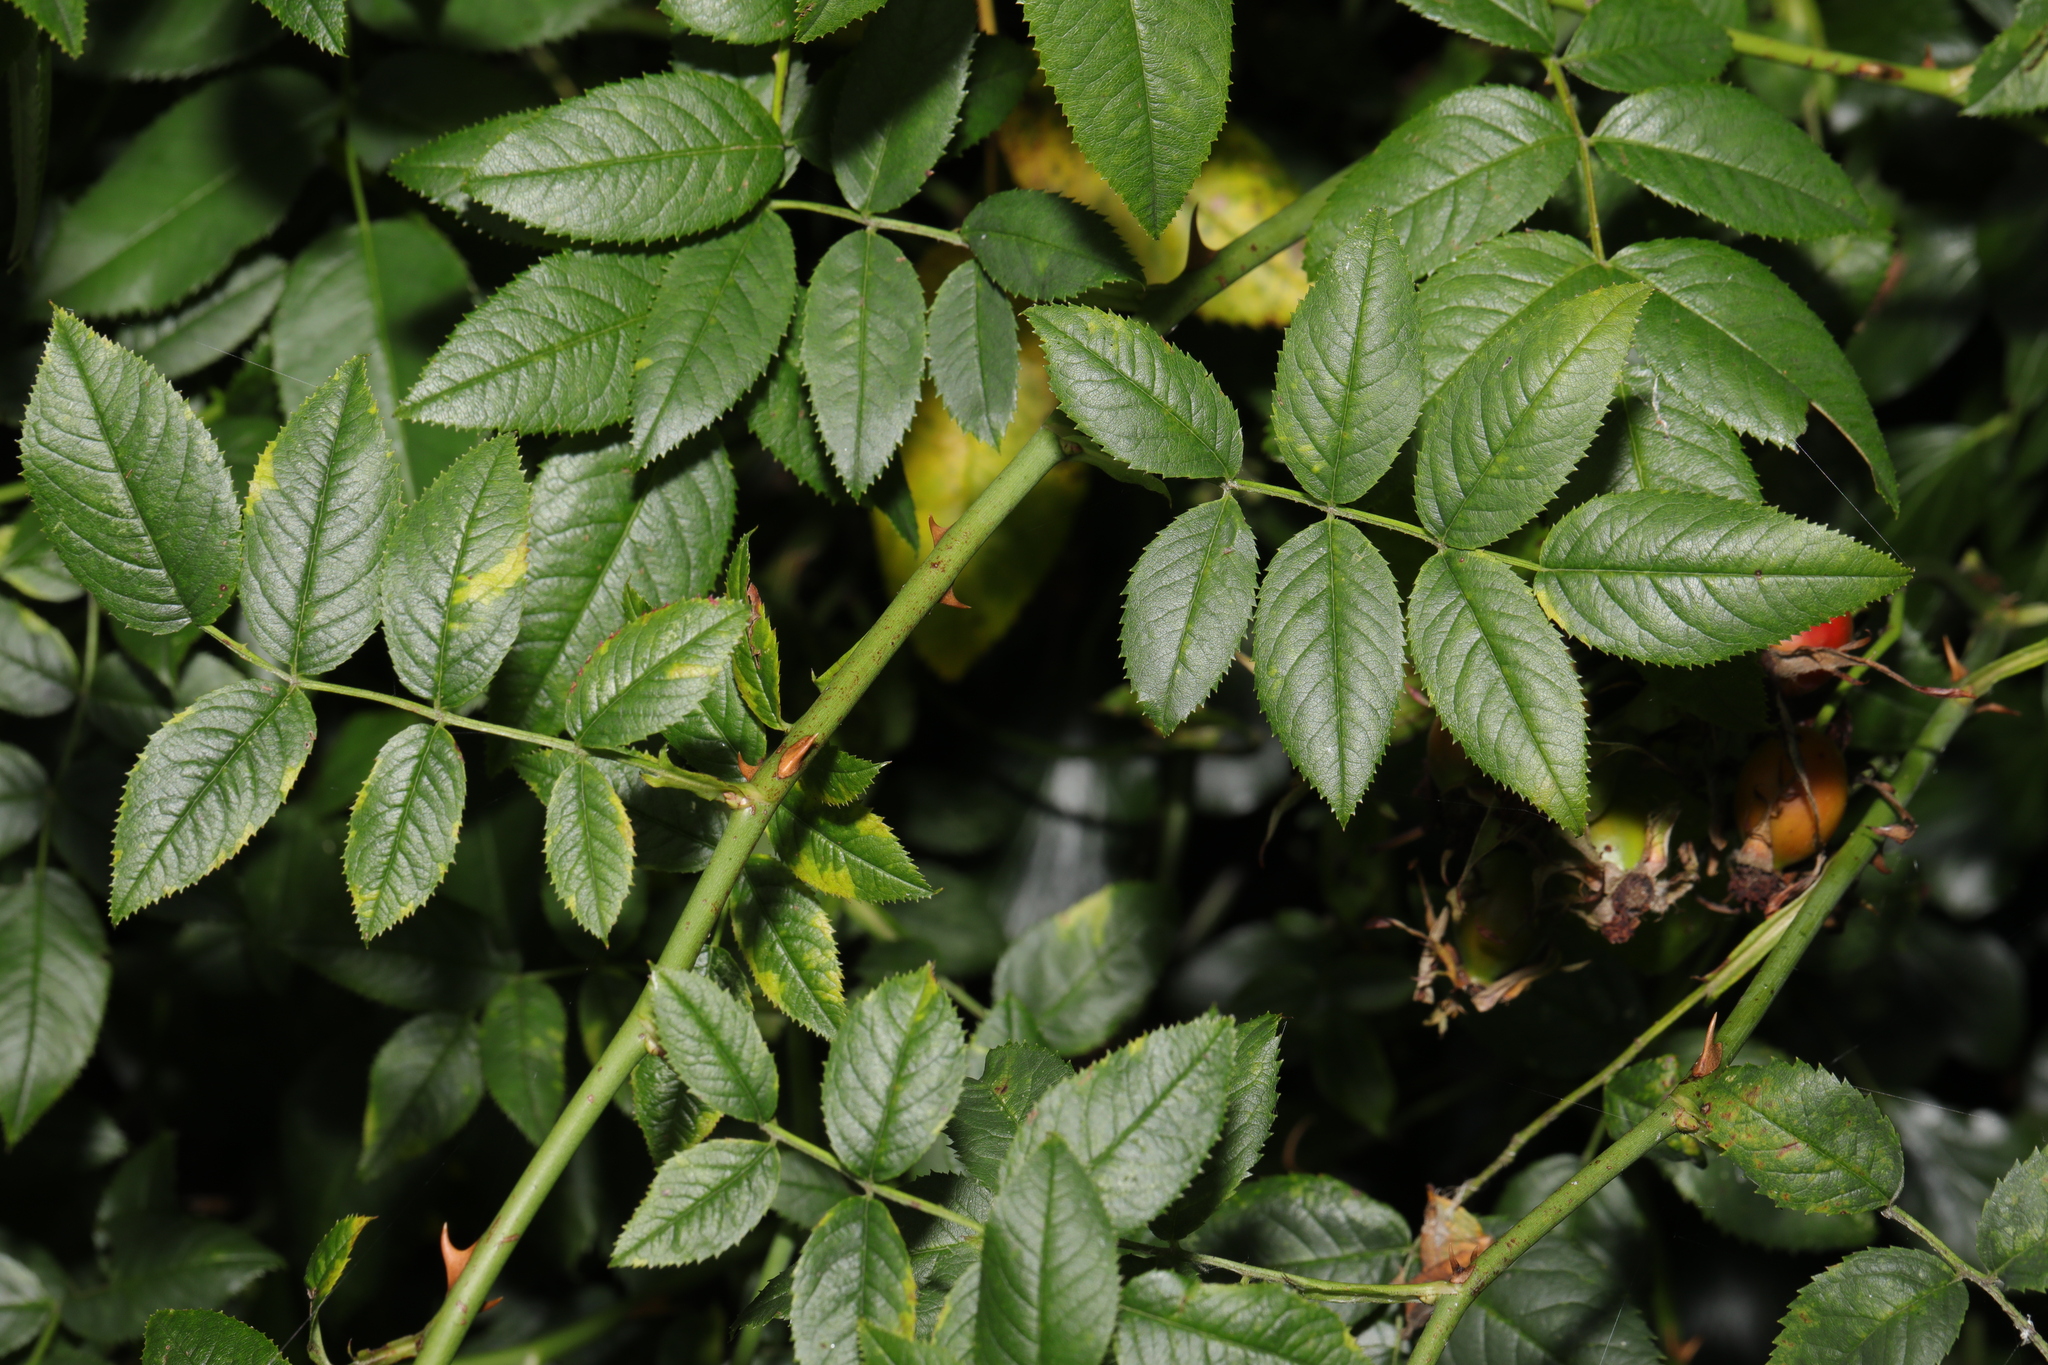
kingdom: Plantae
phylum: Tracheophyta
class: Magnoliopsida
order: Rosales
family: Rosaceae
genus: Rosa
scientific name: Rosa canina
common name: Dog rose
